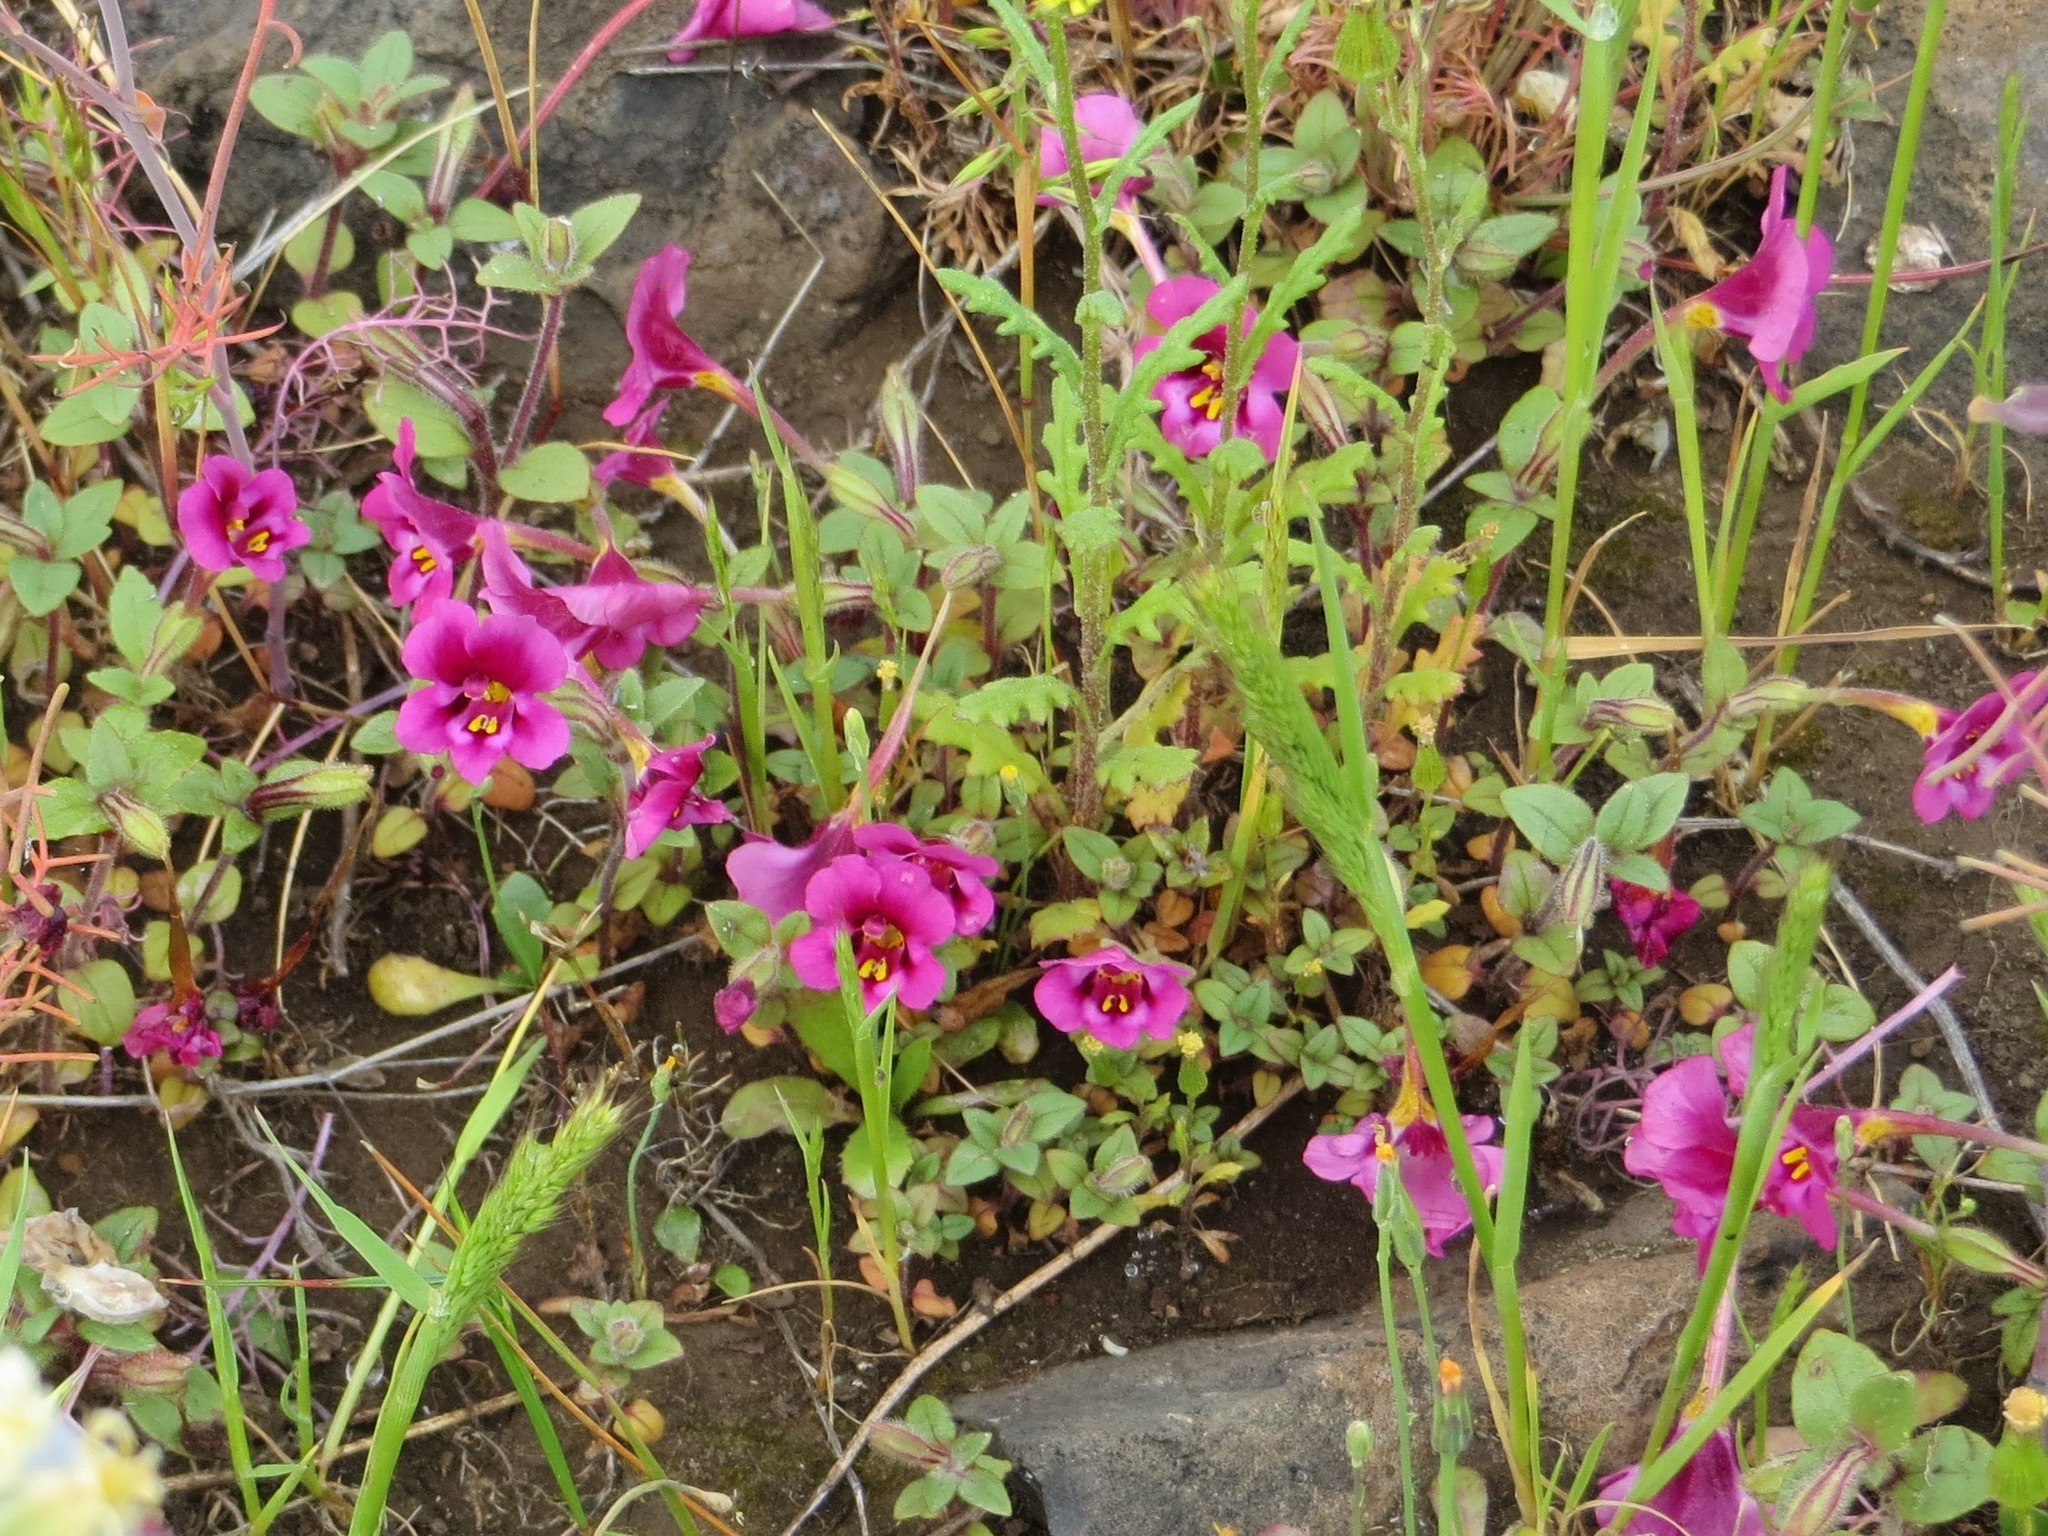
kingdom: Plantae
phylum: Tracheophyta
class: Magnoliopsida
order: Lamiales
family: Phrymaceae
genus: Diplacus
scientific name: Diplacus kelloggii
